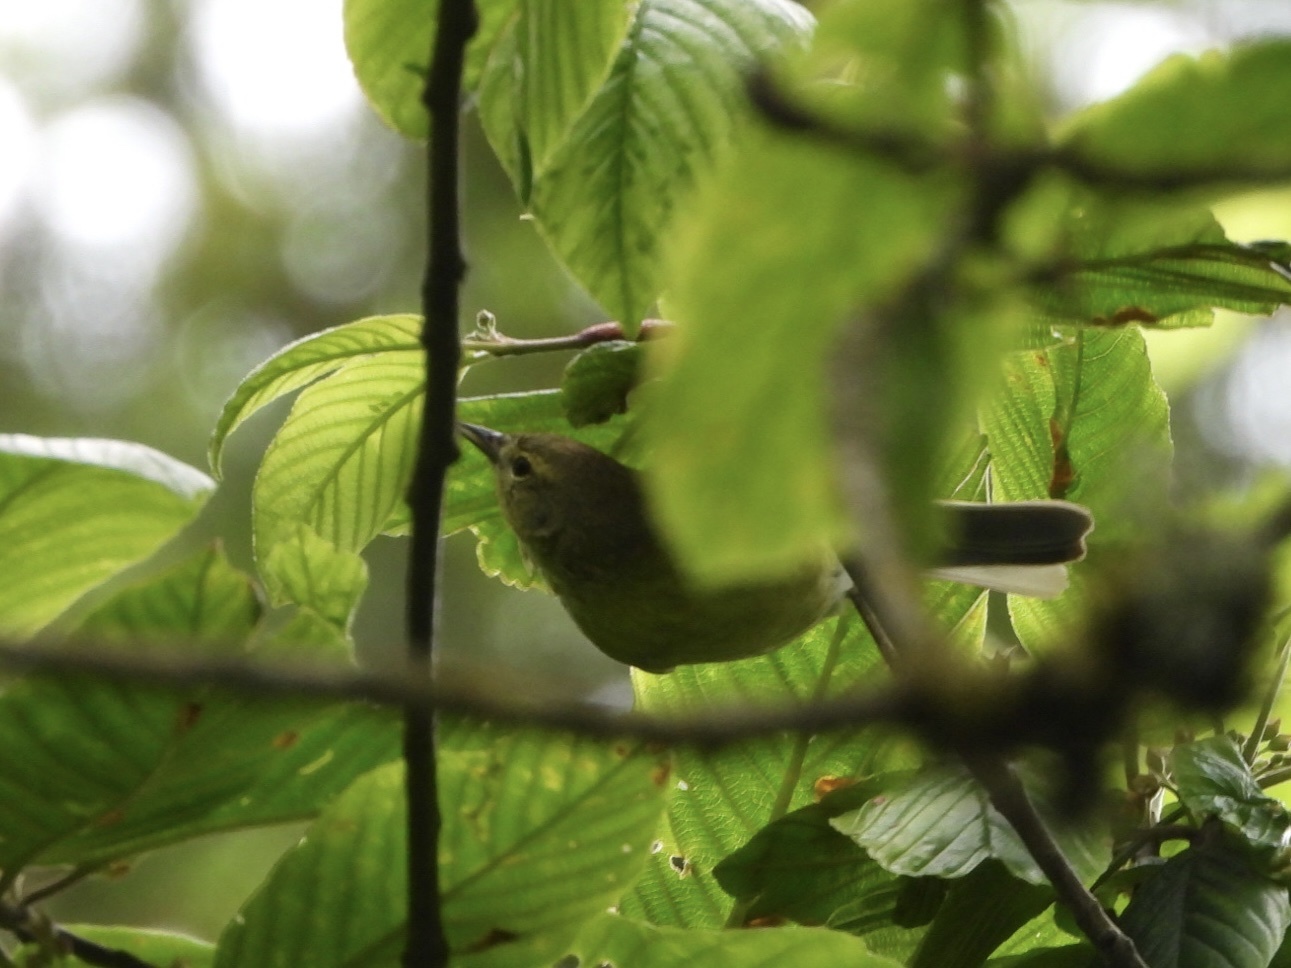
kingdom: Animalia
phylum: Chordata
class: Aves
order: Passeriformes
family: Parulidae
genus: Leiothlypis
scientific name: Leiothlypis celata
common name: Orange-crowned warbler
